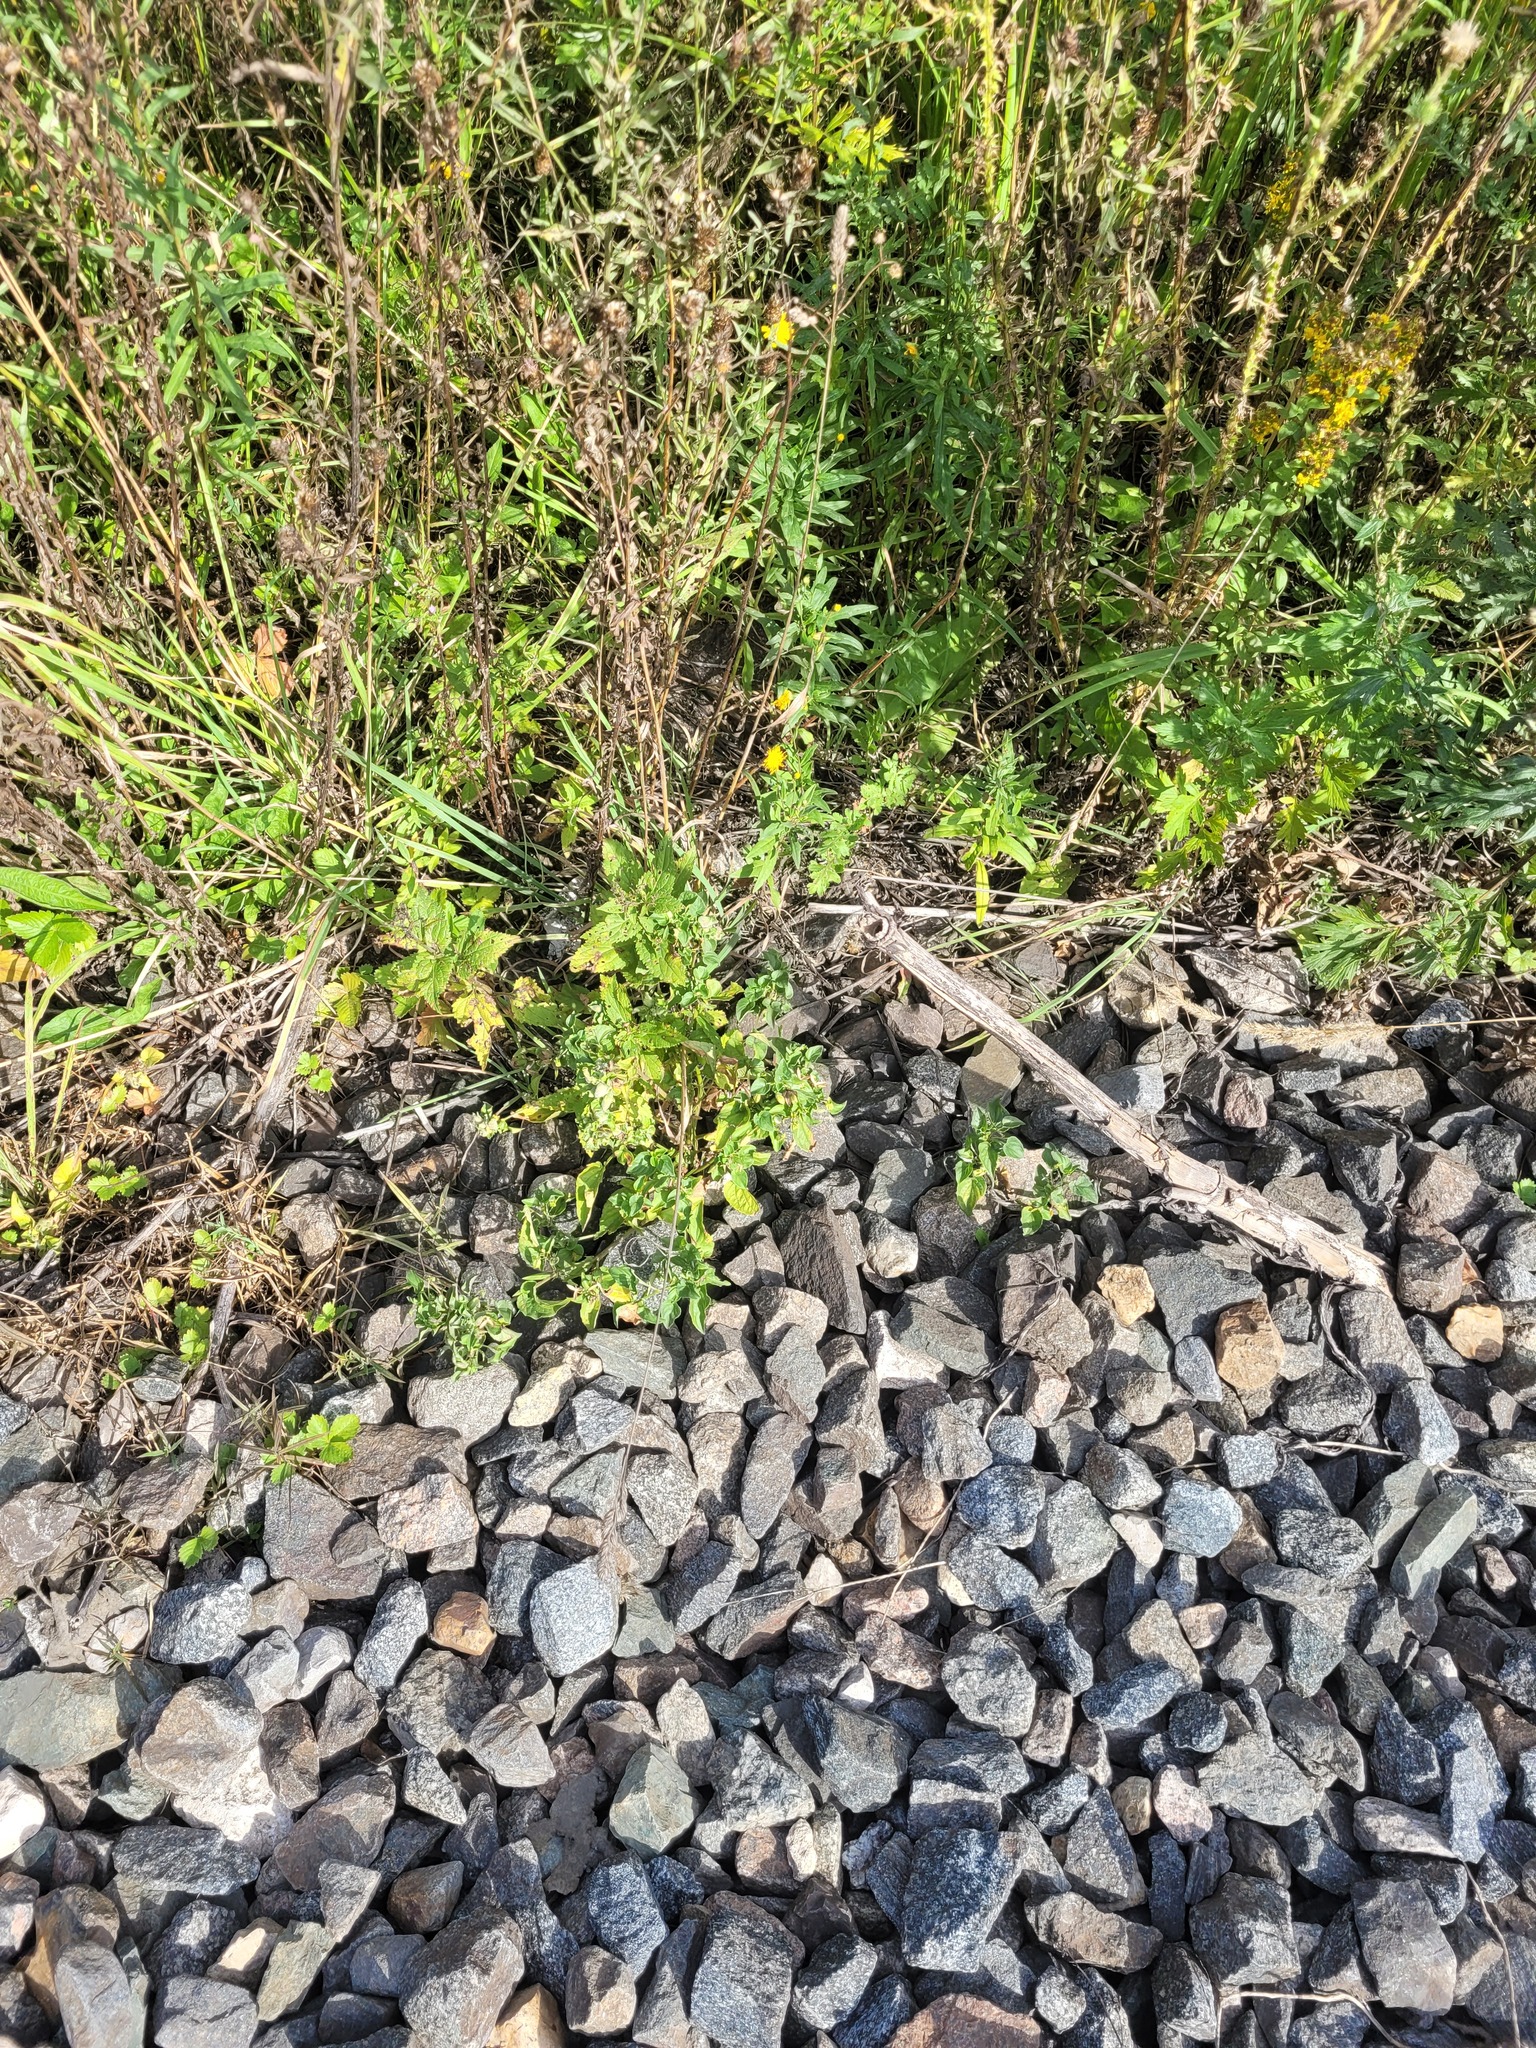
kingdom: Plantae
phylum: Tracheophyta
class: Magnoliopsida
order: Malpighiales
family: Violaceae
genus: Viola
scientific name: Viola canina
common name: Heath dog-violet
